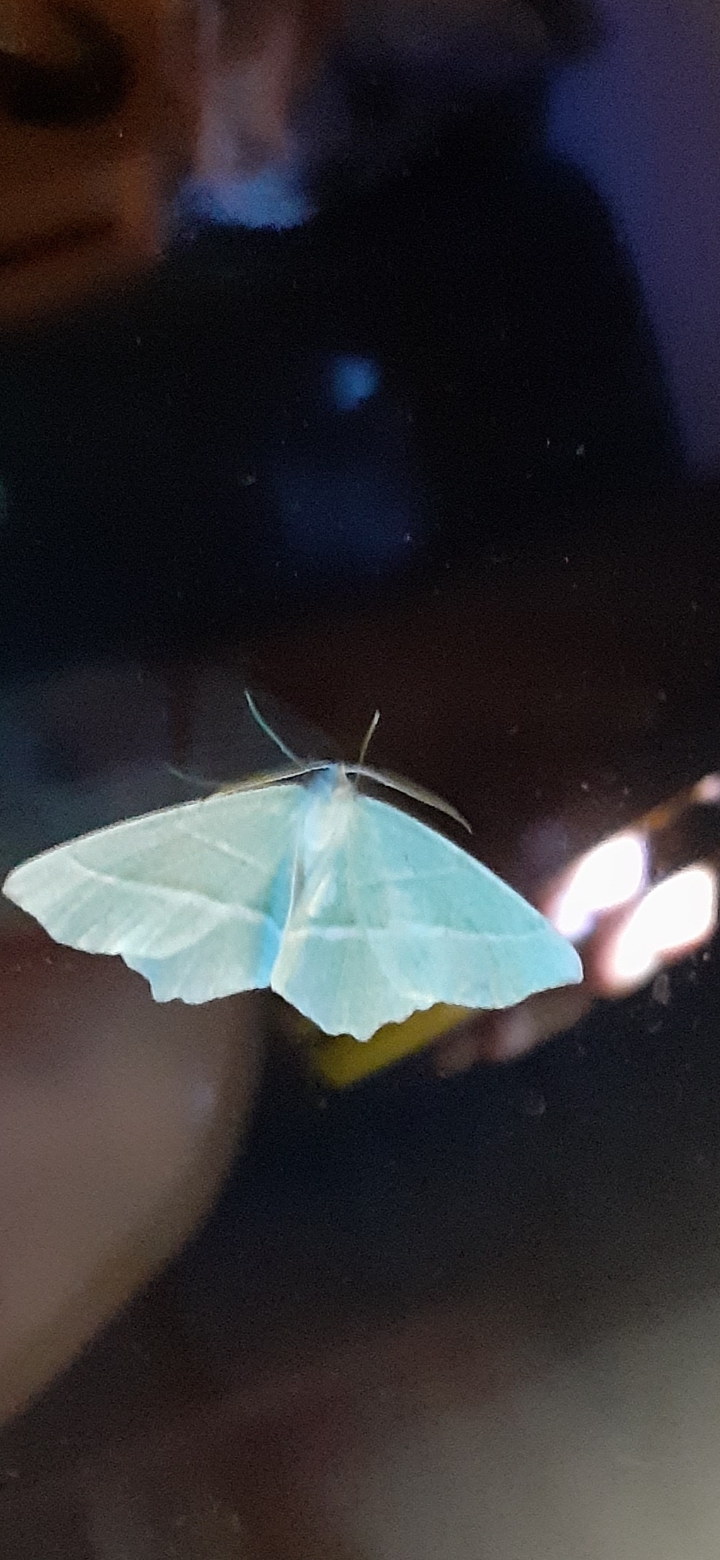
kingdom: Animalia
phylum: Arthropoda
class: Insecta
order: Lepidoptera
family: Geometridae
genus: Campaea
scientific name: Campaea margaritaria
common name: Light emerald
